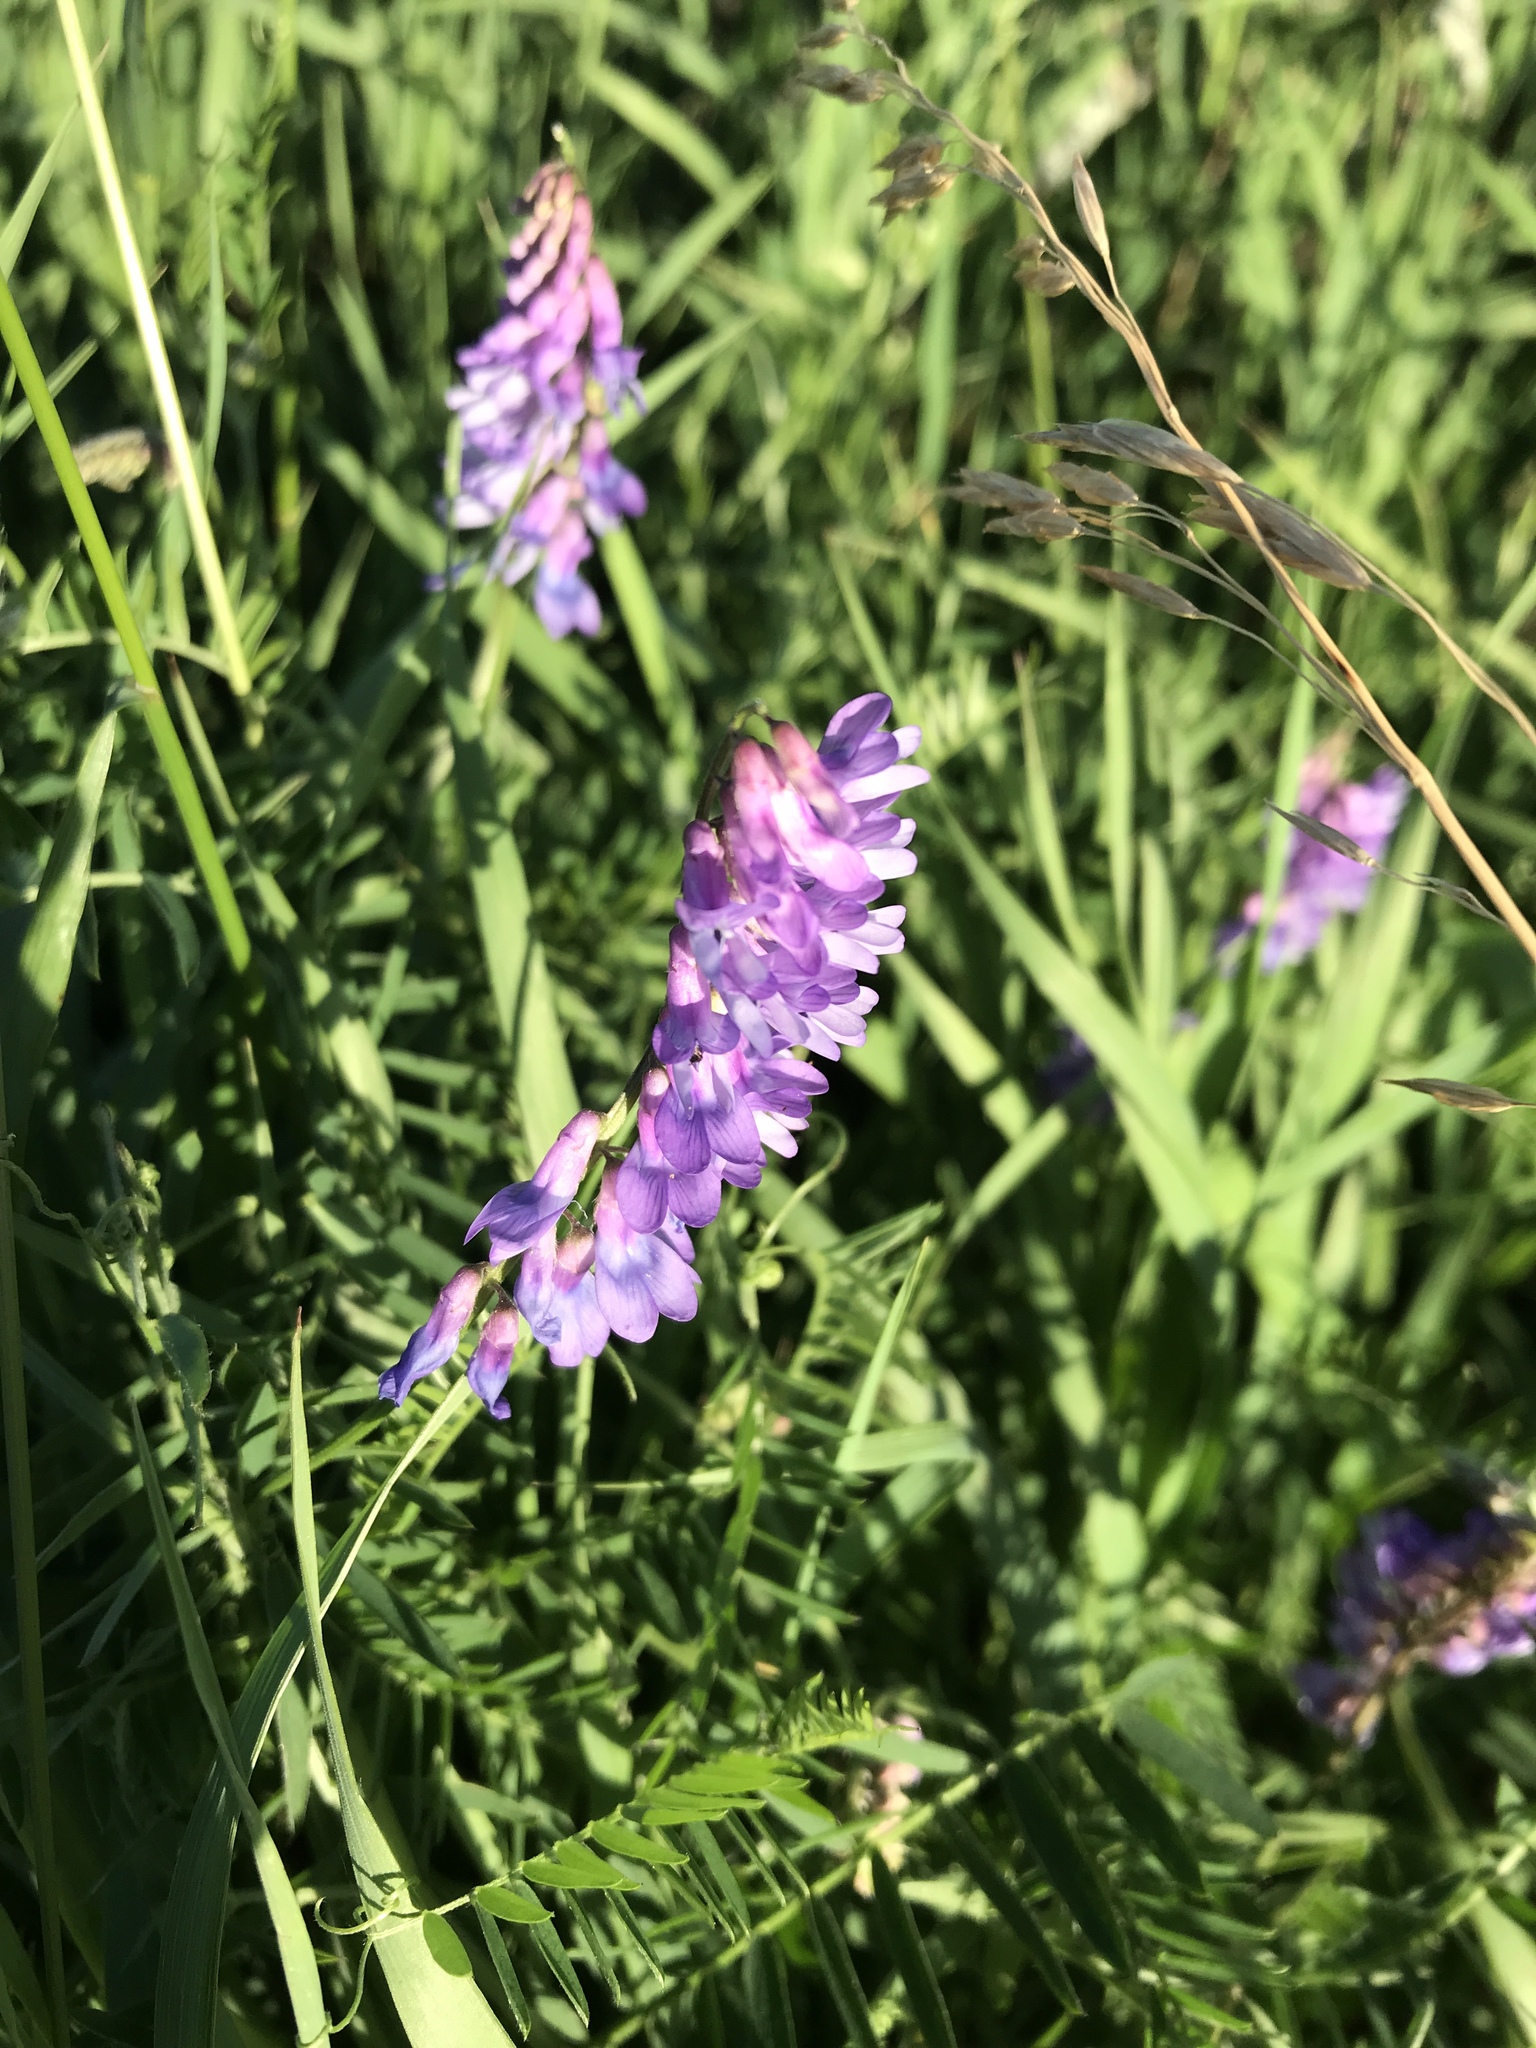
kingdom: Plantae
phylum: Tracheophyta
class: Magnoliopsida
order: Fabales
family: Fabaceae
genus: Vicia
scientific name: Vicia cracca
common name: Bird vetch
